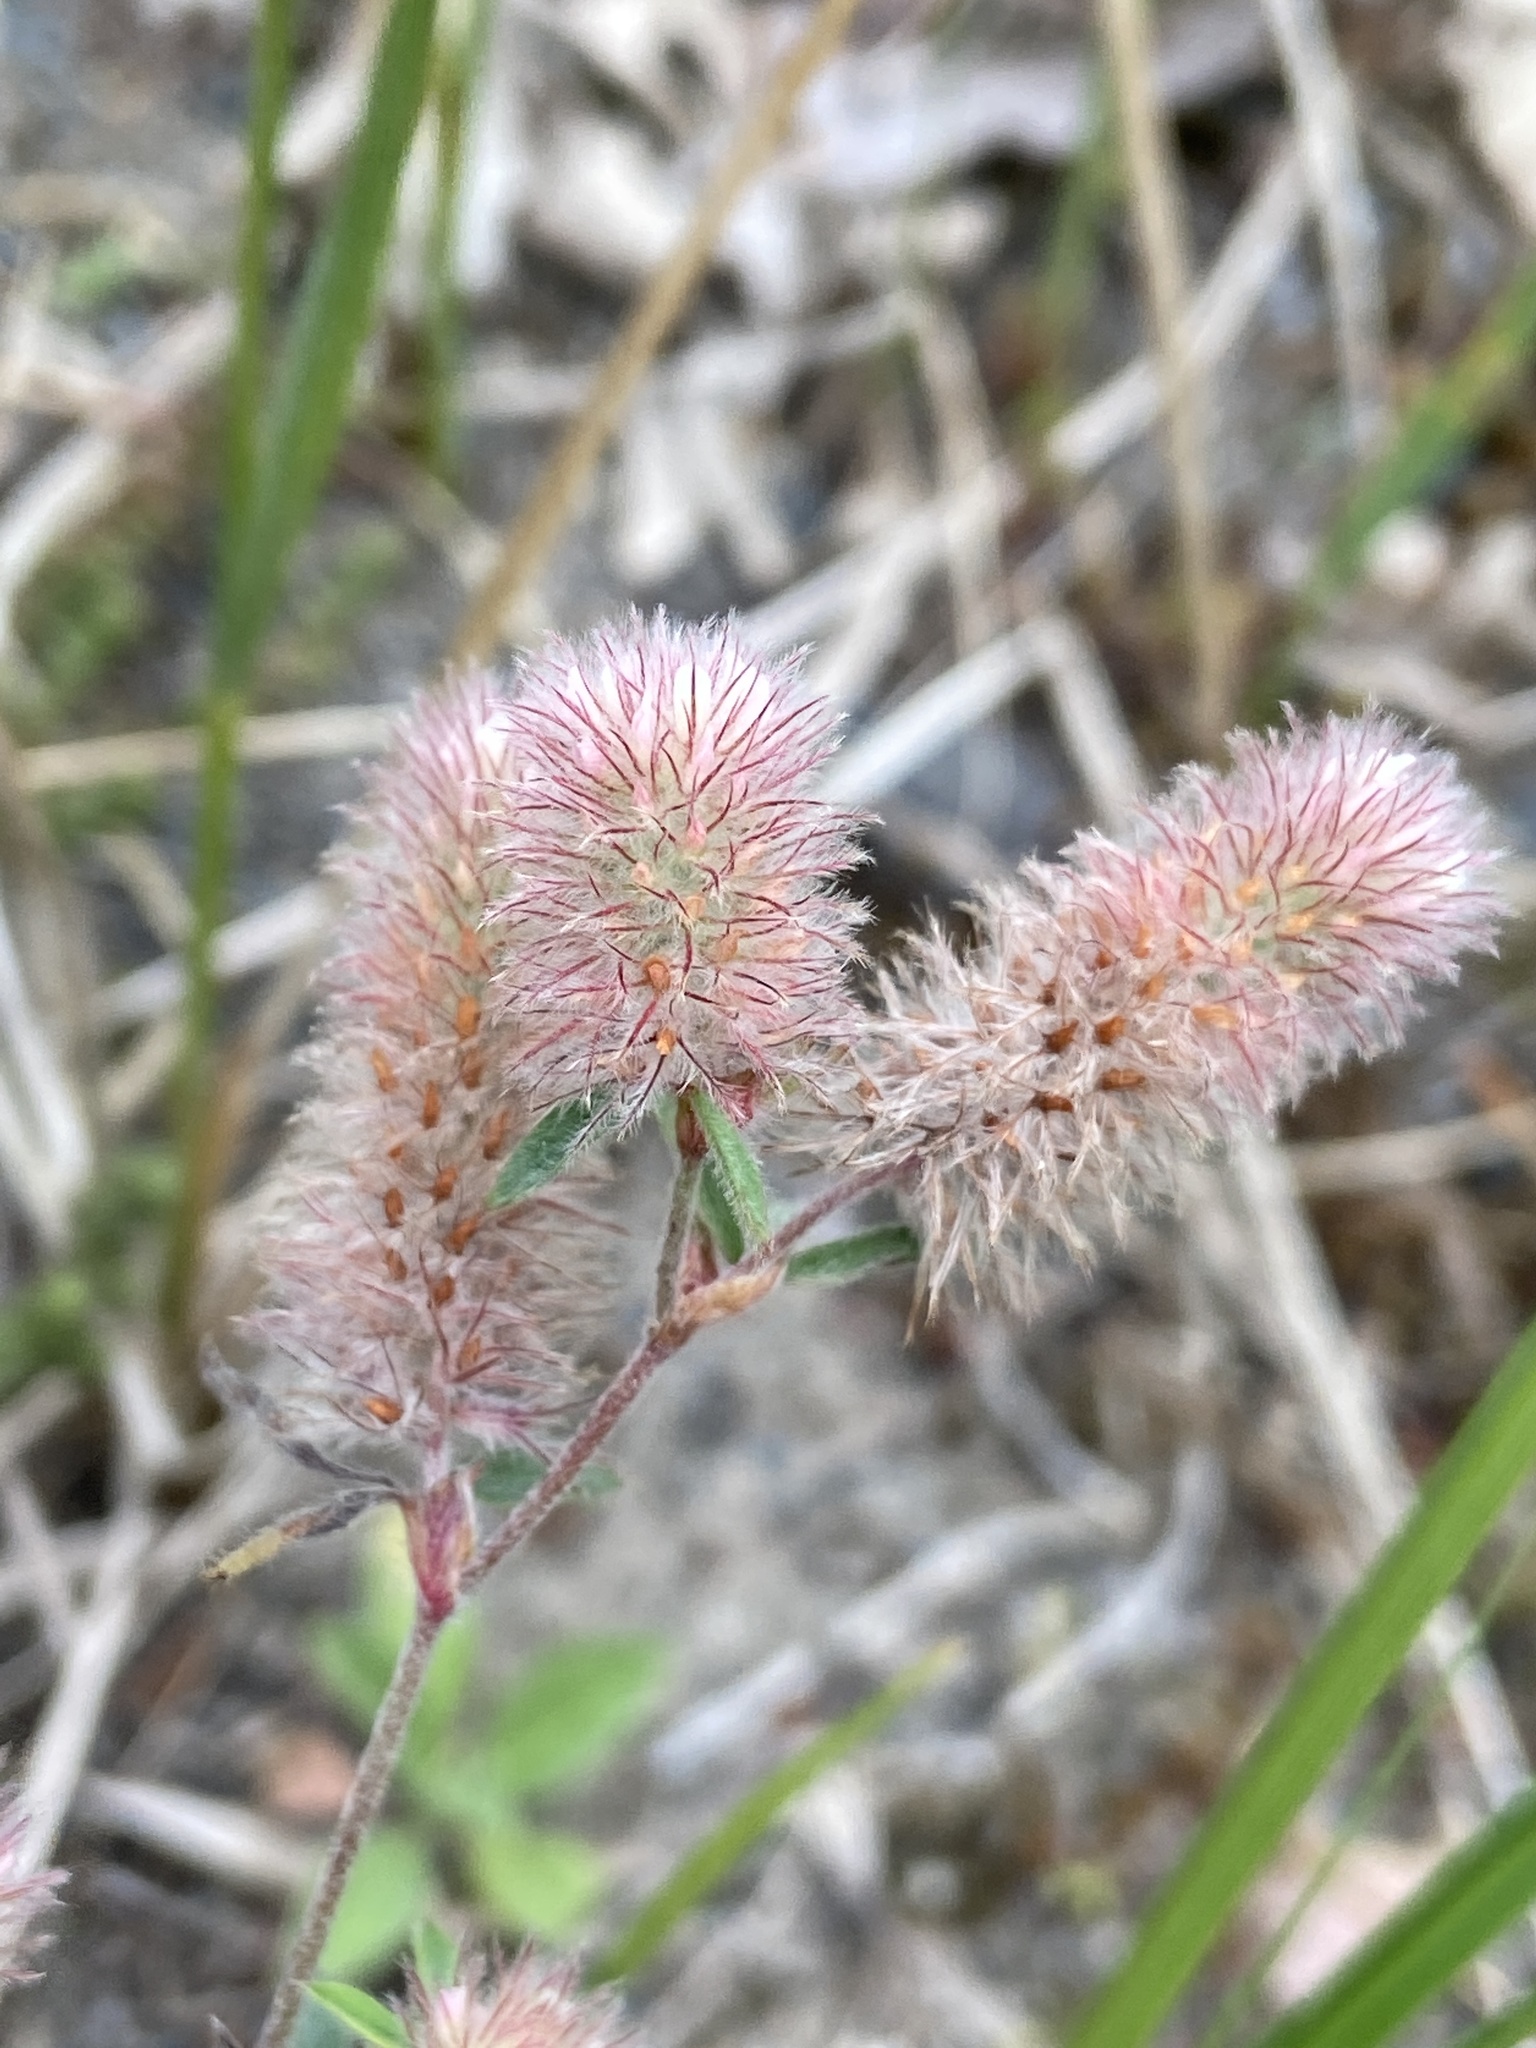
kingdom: Plantae
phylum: Tracheophyta
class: Magnoliopsida
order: Fabales
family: Fabaceae
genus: Trifolium
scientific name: Trifolium arvense
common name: Hare's-foot clover
